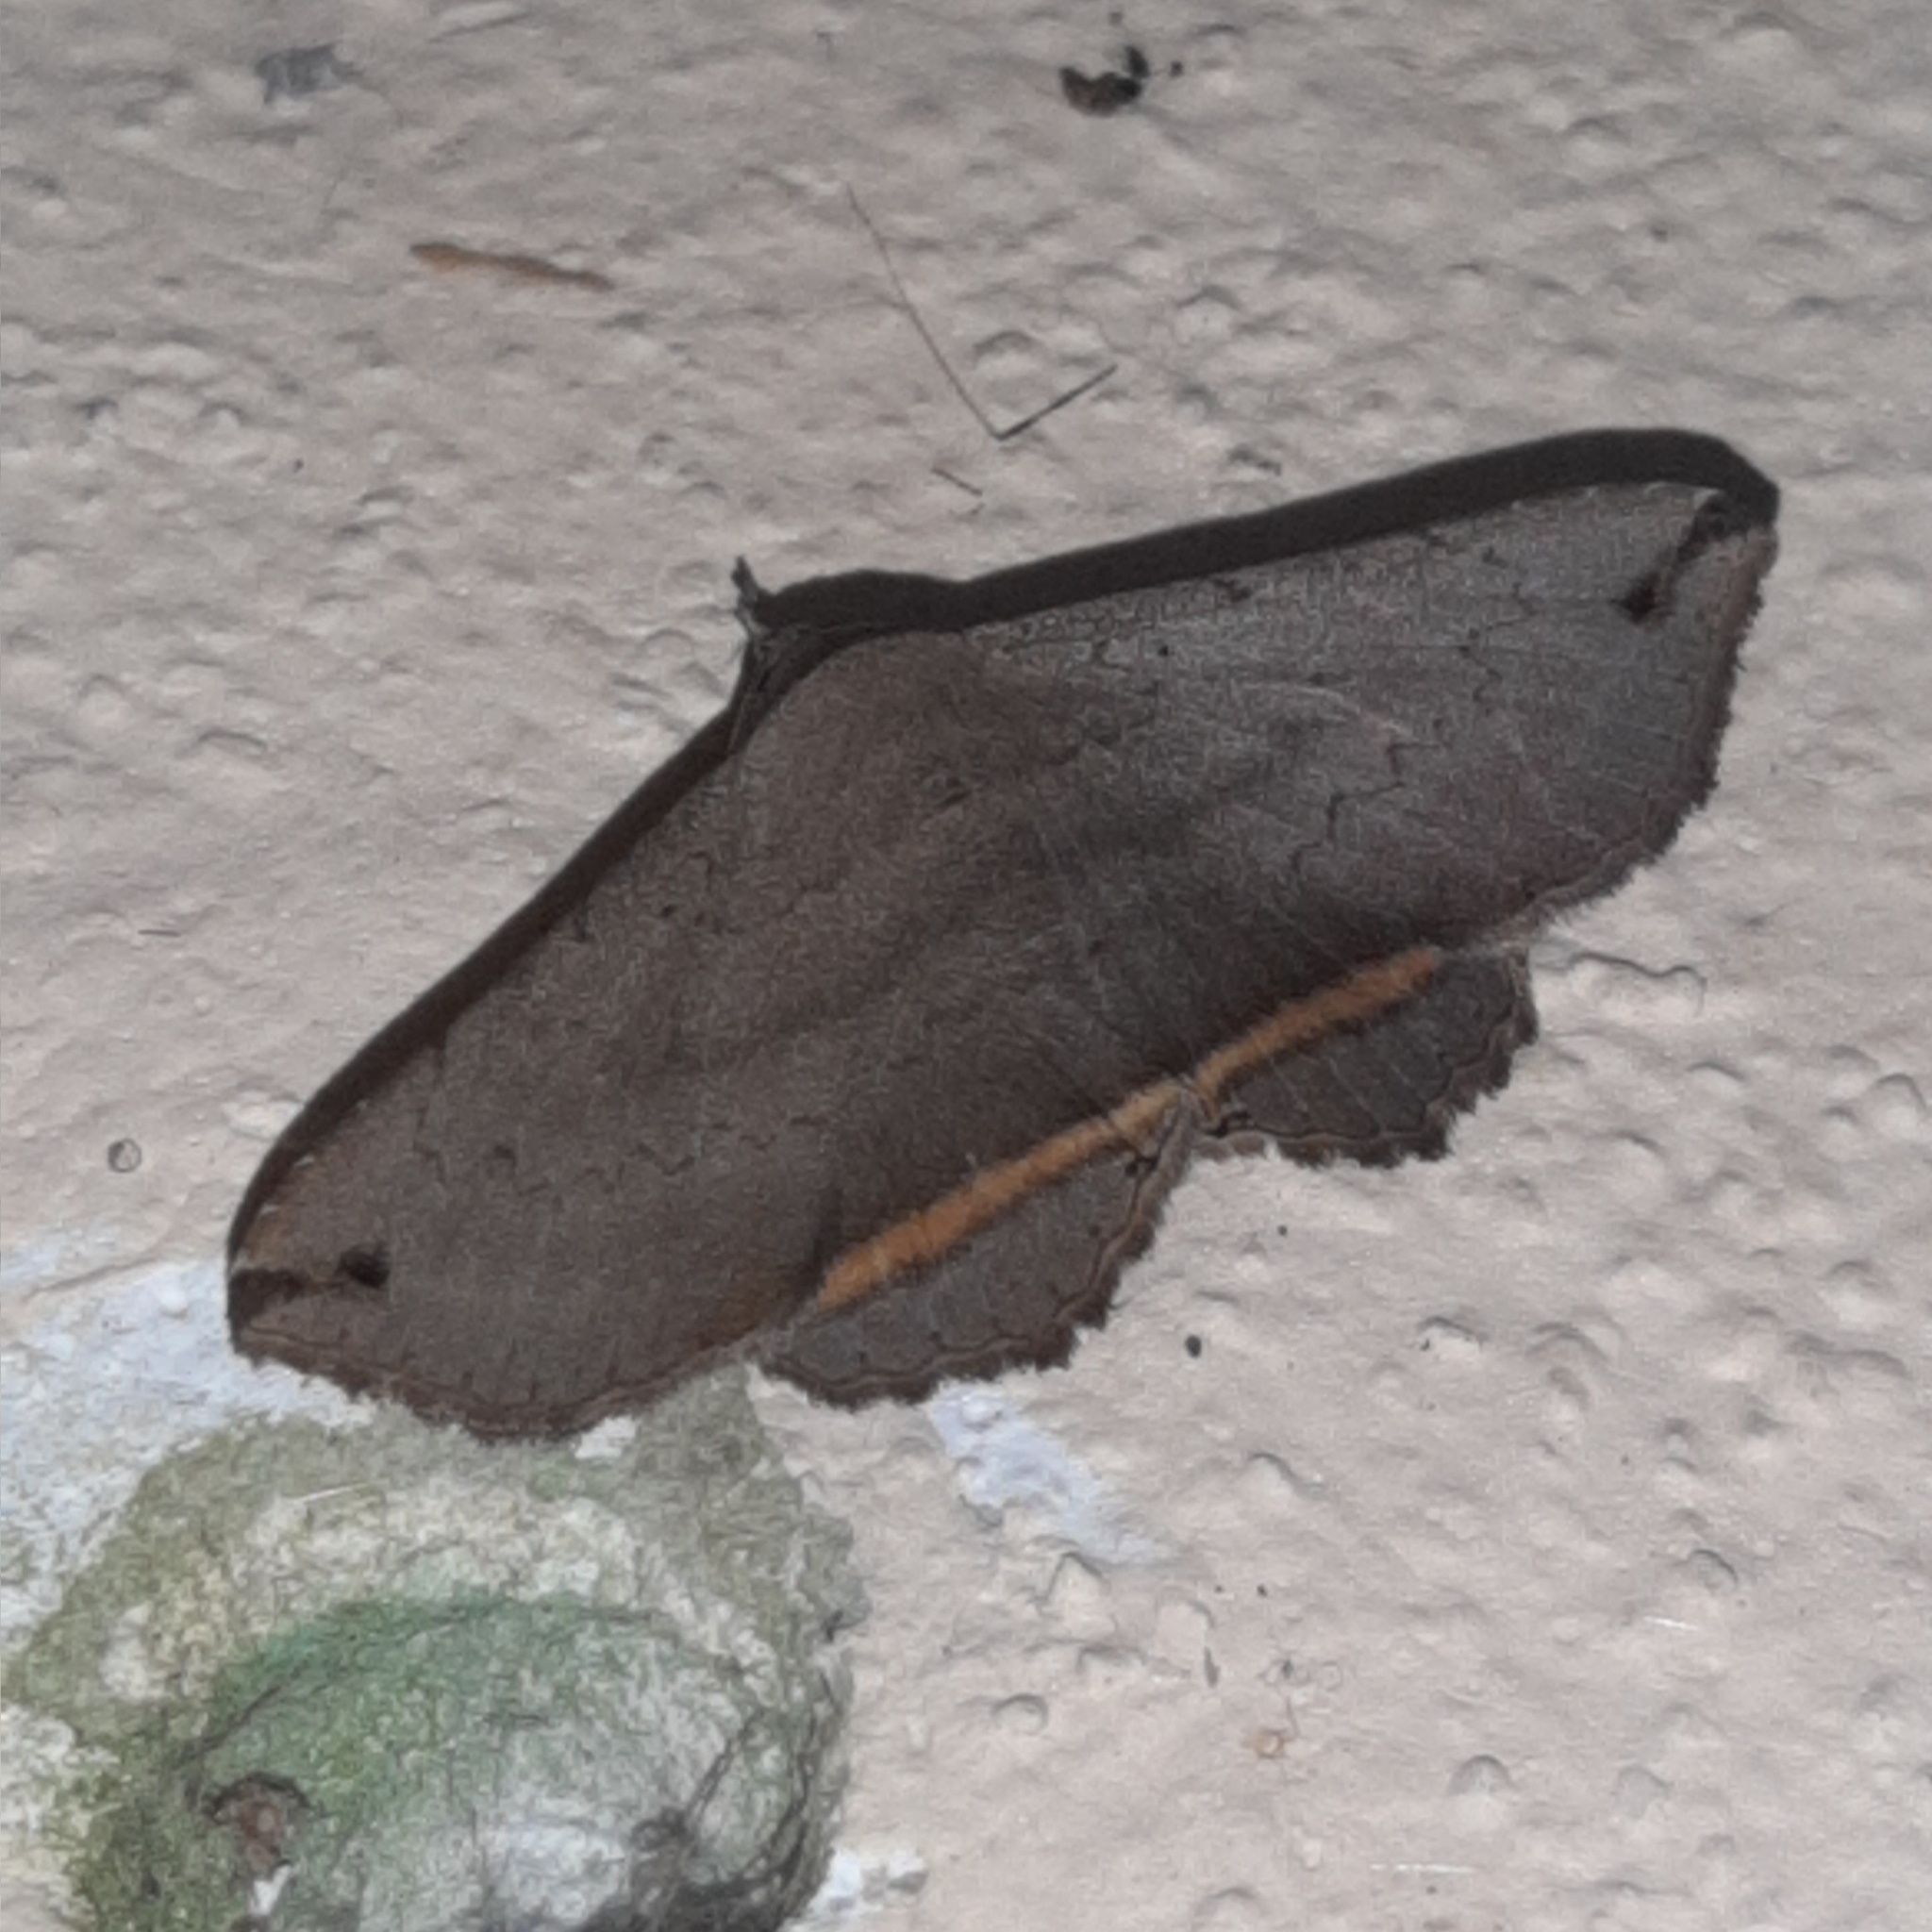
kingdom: Animalia
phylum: Arthropoda
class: Insecta
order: Lepidoptera
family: Erebidae
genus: Lesmone
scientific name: Lesmone formularis
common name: Lesmone moth
